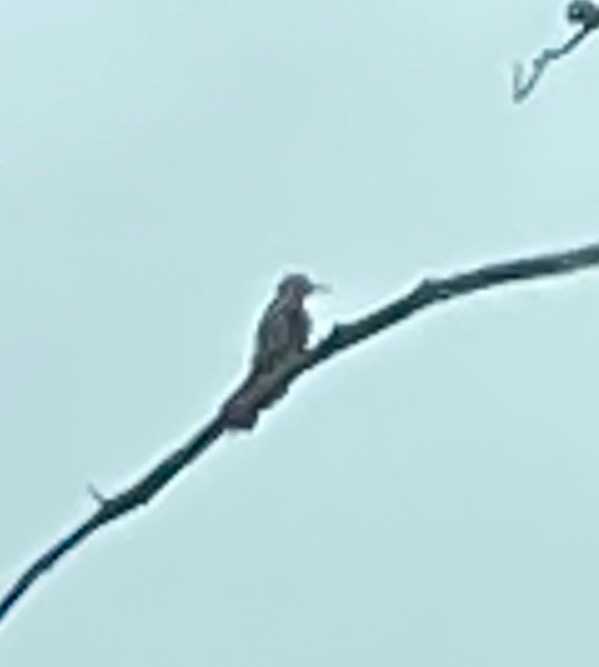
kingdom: Animalia
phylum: Chordata
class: Aves
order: Piciformes
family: Picidae
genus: Colaptes
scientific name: Colaptes auratus
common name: Northern flicker
